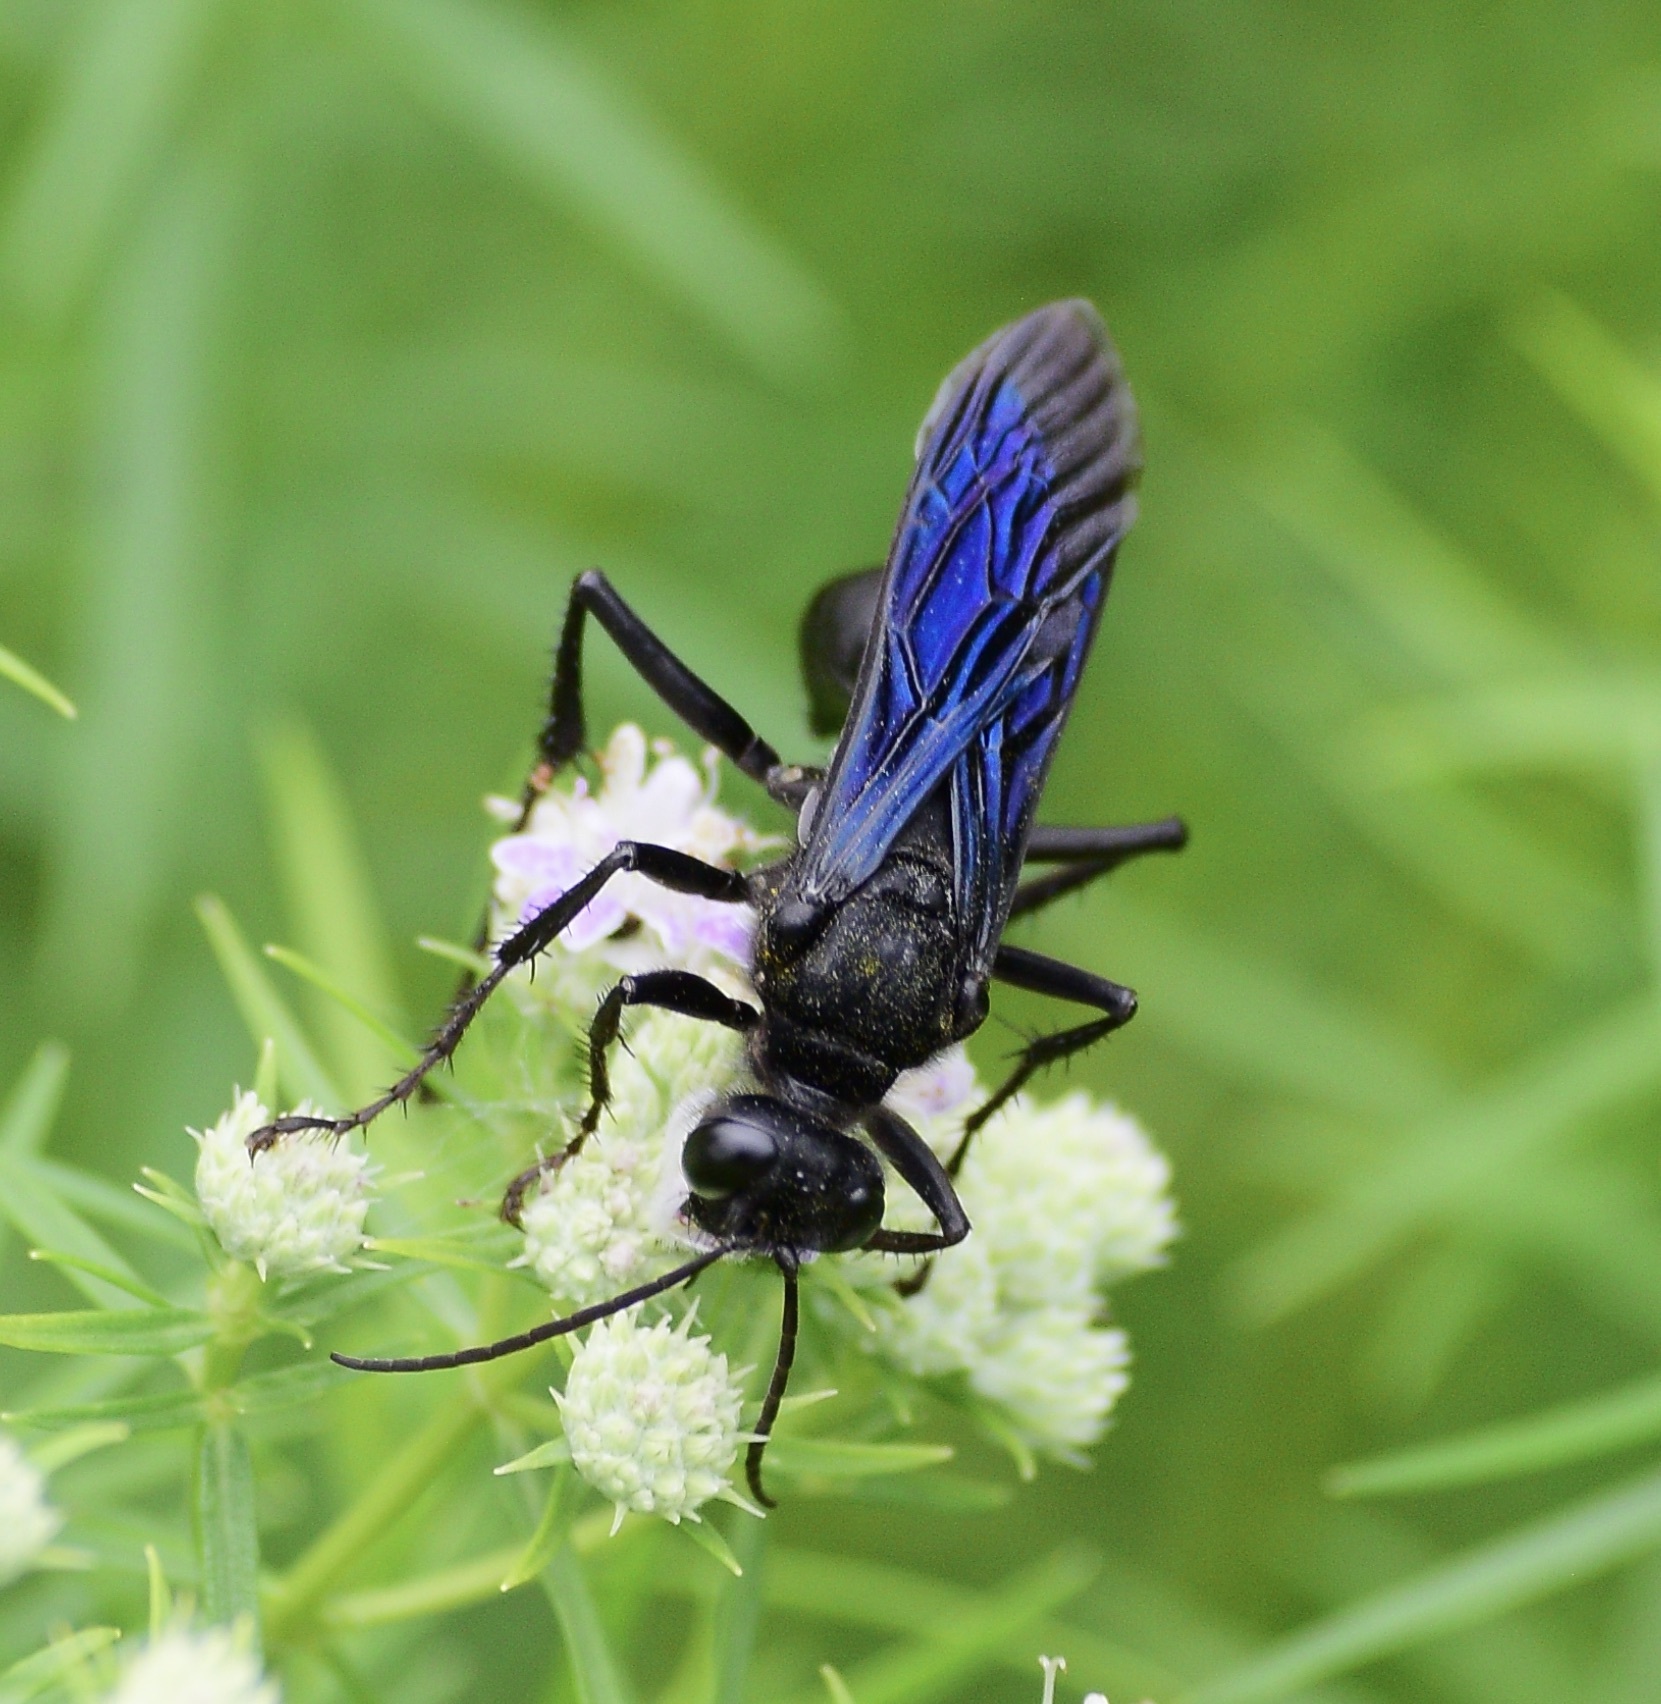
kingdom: Animalia
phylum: Arthropoda
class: Insecta
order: Hymenoptera
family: Sphecidae
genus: Sphex
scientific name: Sphex pensylvanicus
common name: Great black digger wasp
